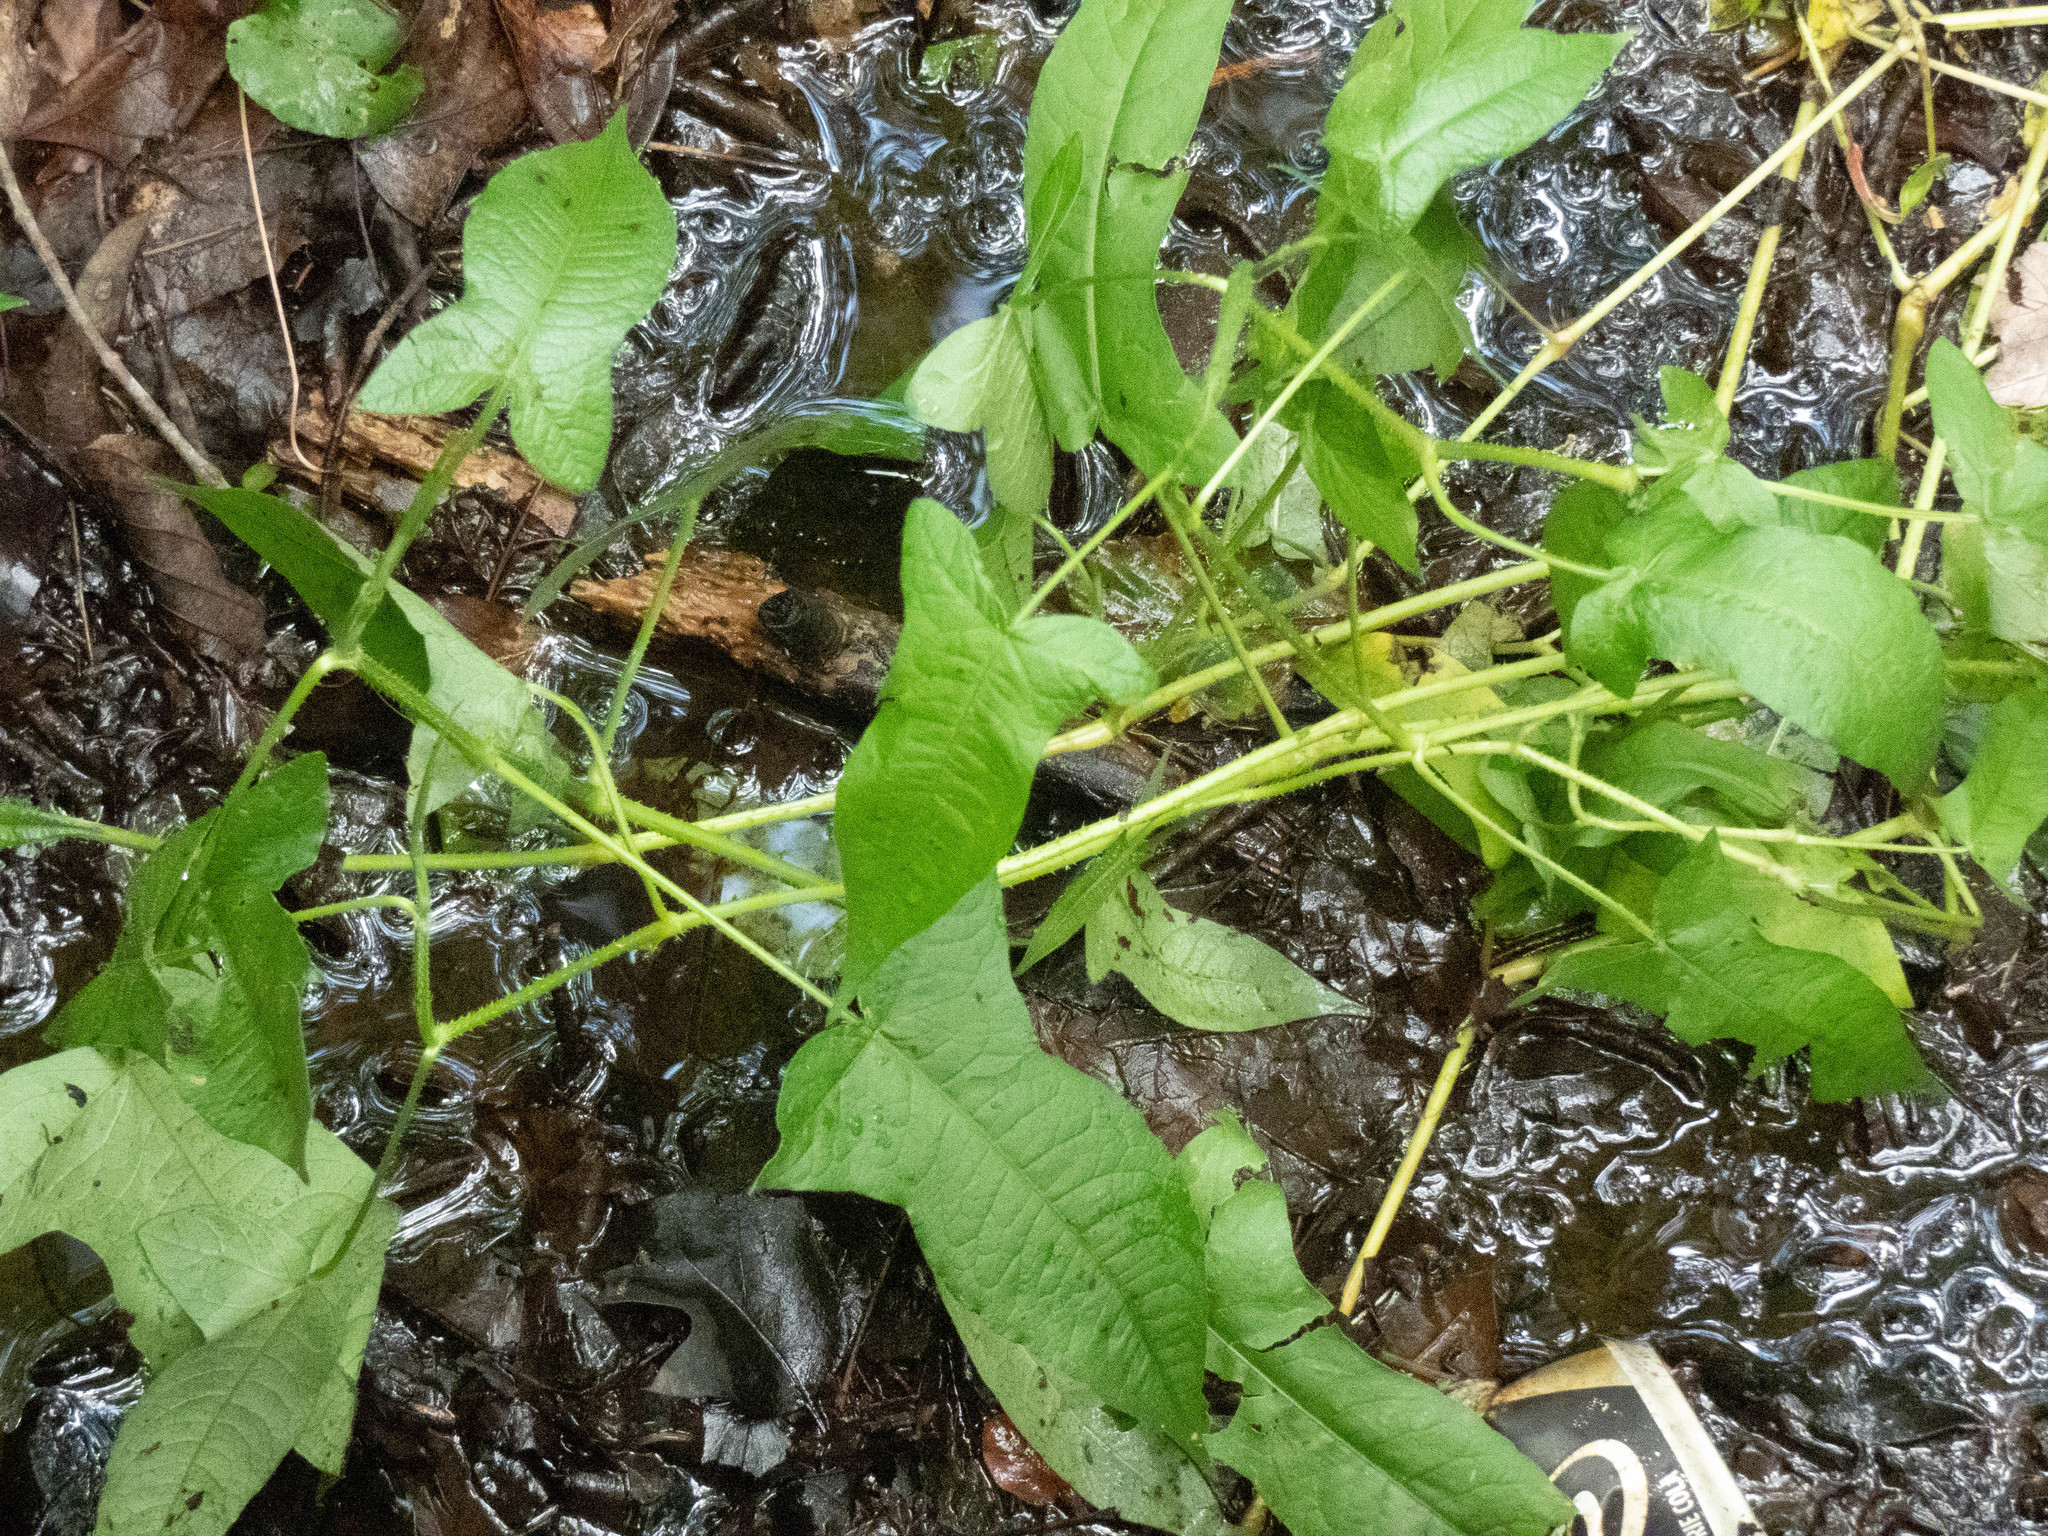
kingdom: Plantae
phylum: Tracheophyta
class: Magnoliopsida
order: Caryophyllales
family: Polygonaceae
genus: Persicaria
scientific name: Persicaria arifolia
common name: Halberd-leaved tear-thumb
